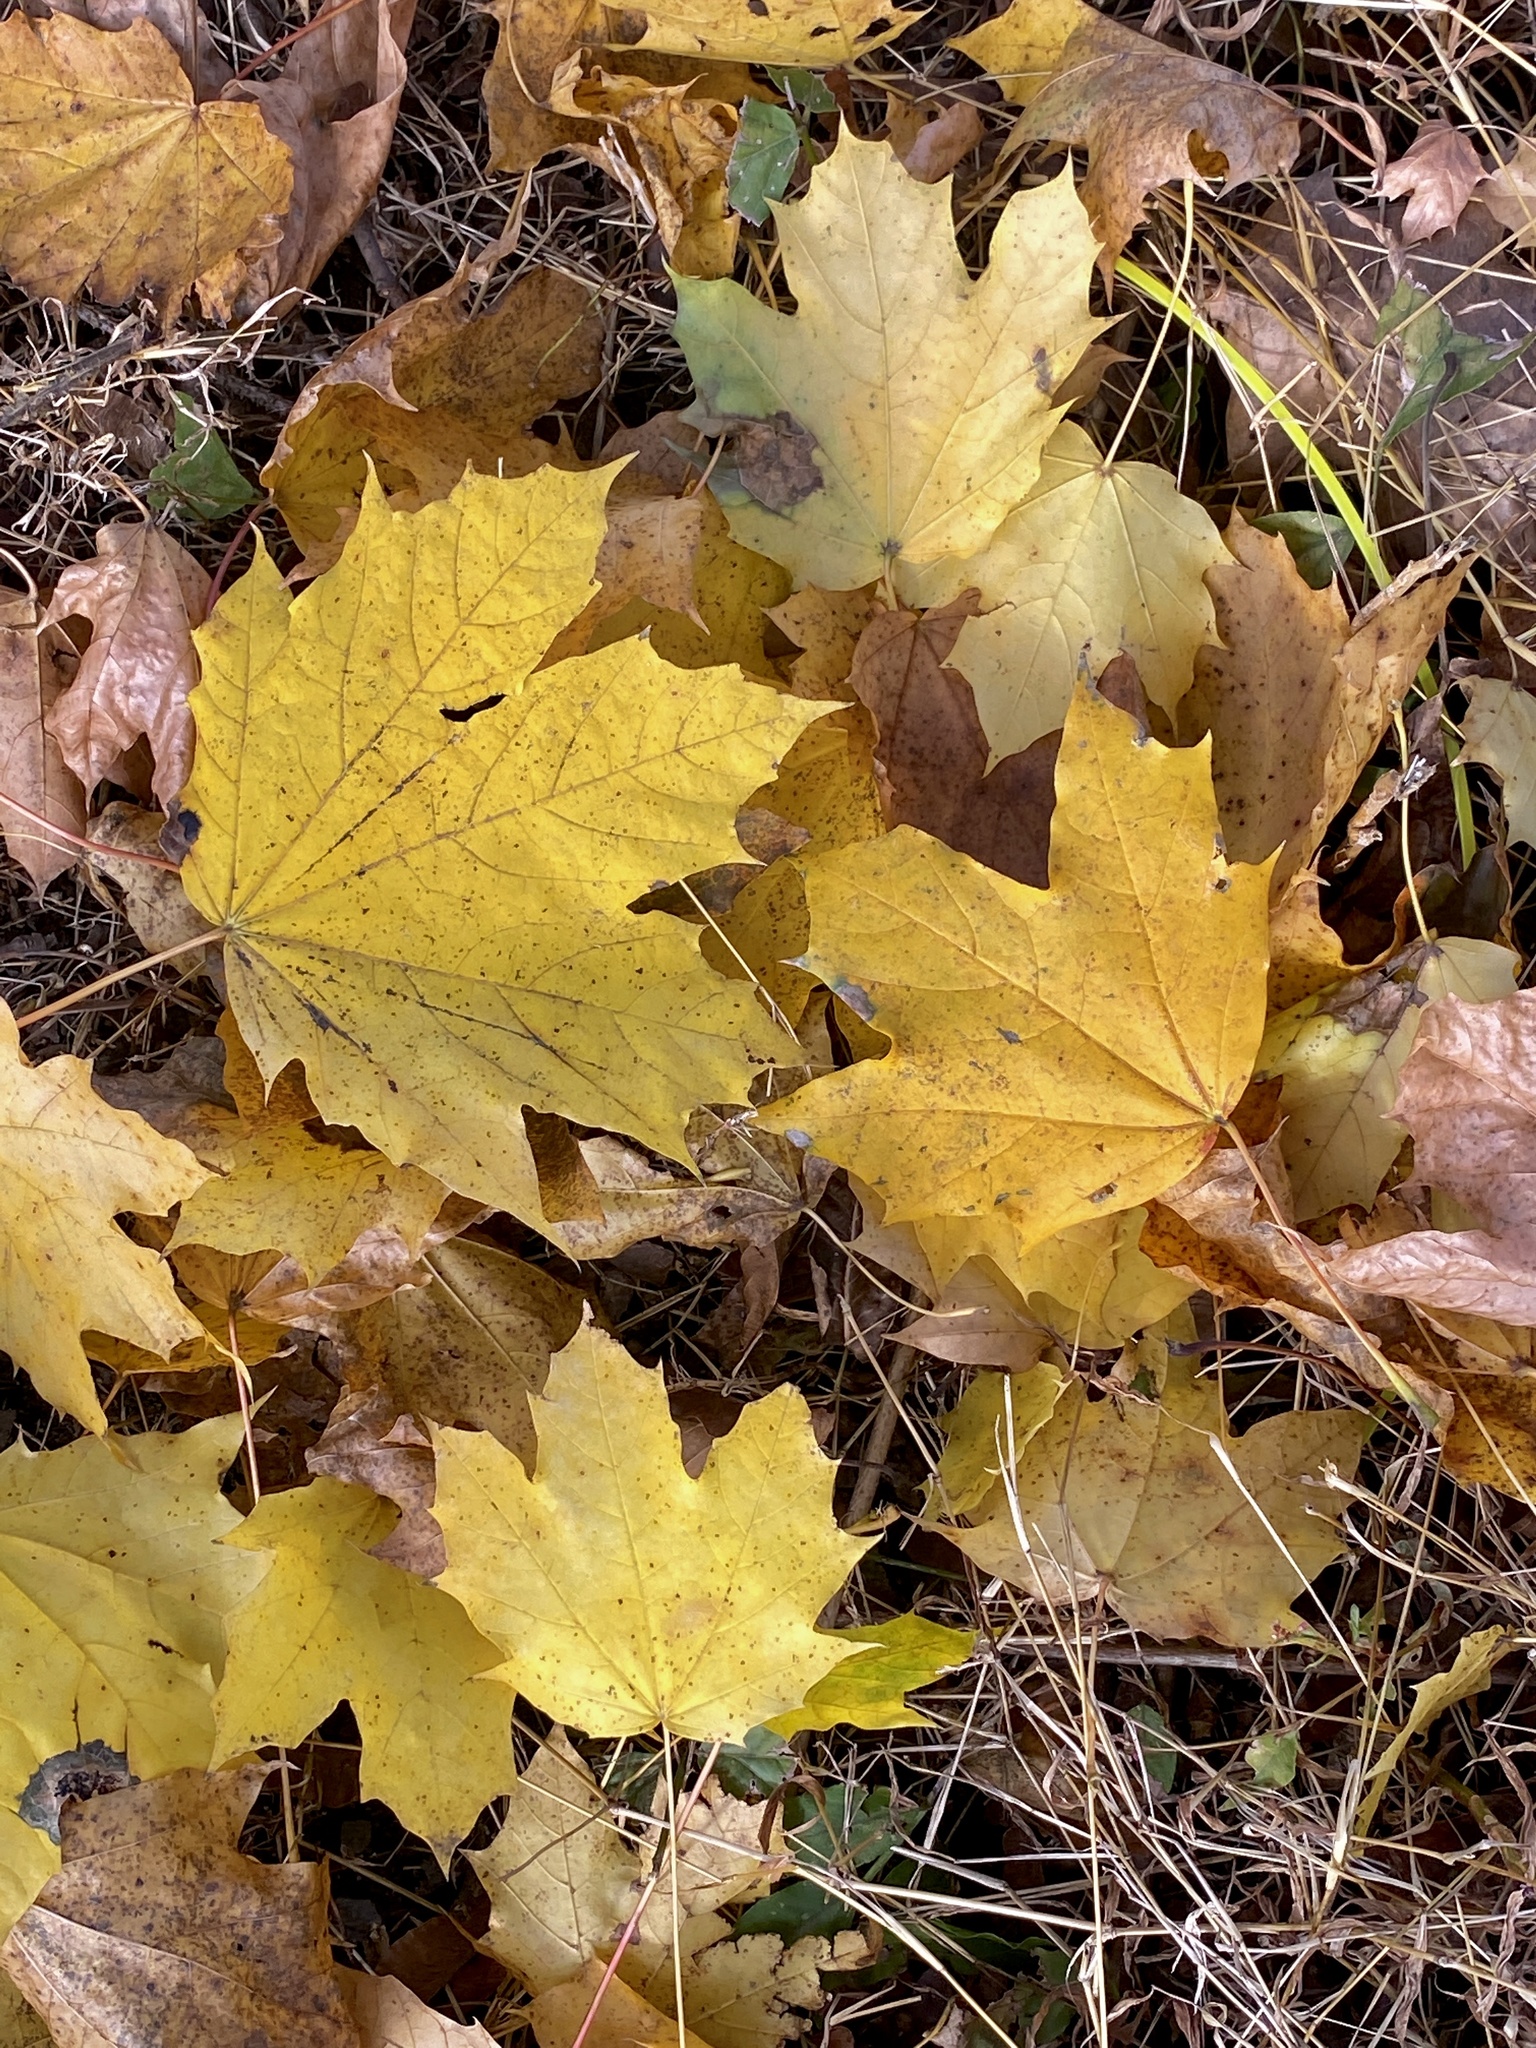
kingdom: Plantae
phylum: Tracheophyta
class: Magnoliopsida
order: Sapindales
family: Sapindaceae
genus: Acer
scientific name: Acer platanoides
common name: Norway maple
